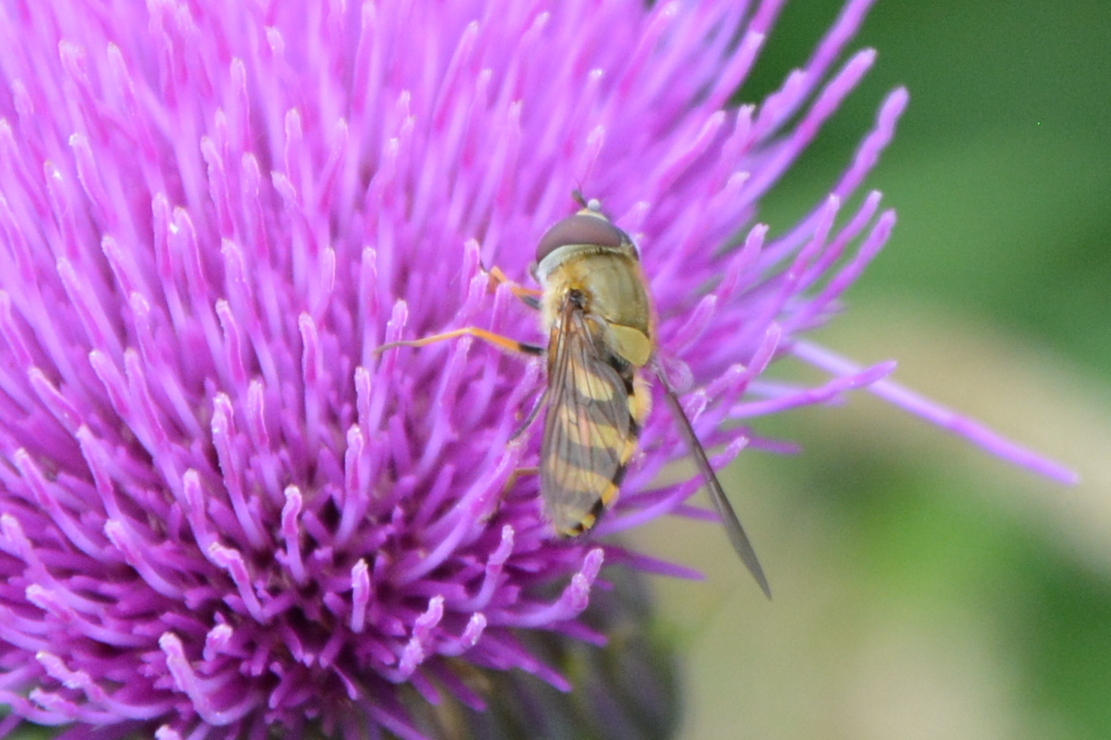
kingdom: Animalia
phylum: Arthropoda
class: Insecta
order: Diptera
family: Syrphidae
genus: Syrphus
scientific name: Syrphus
